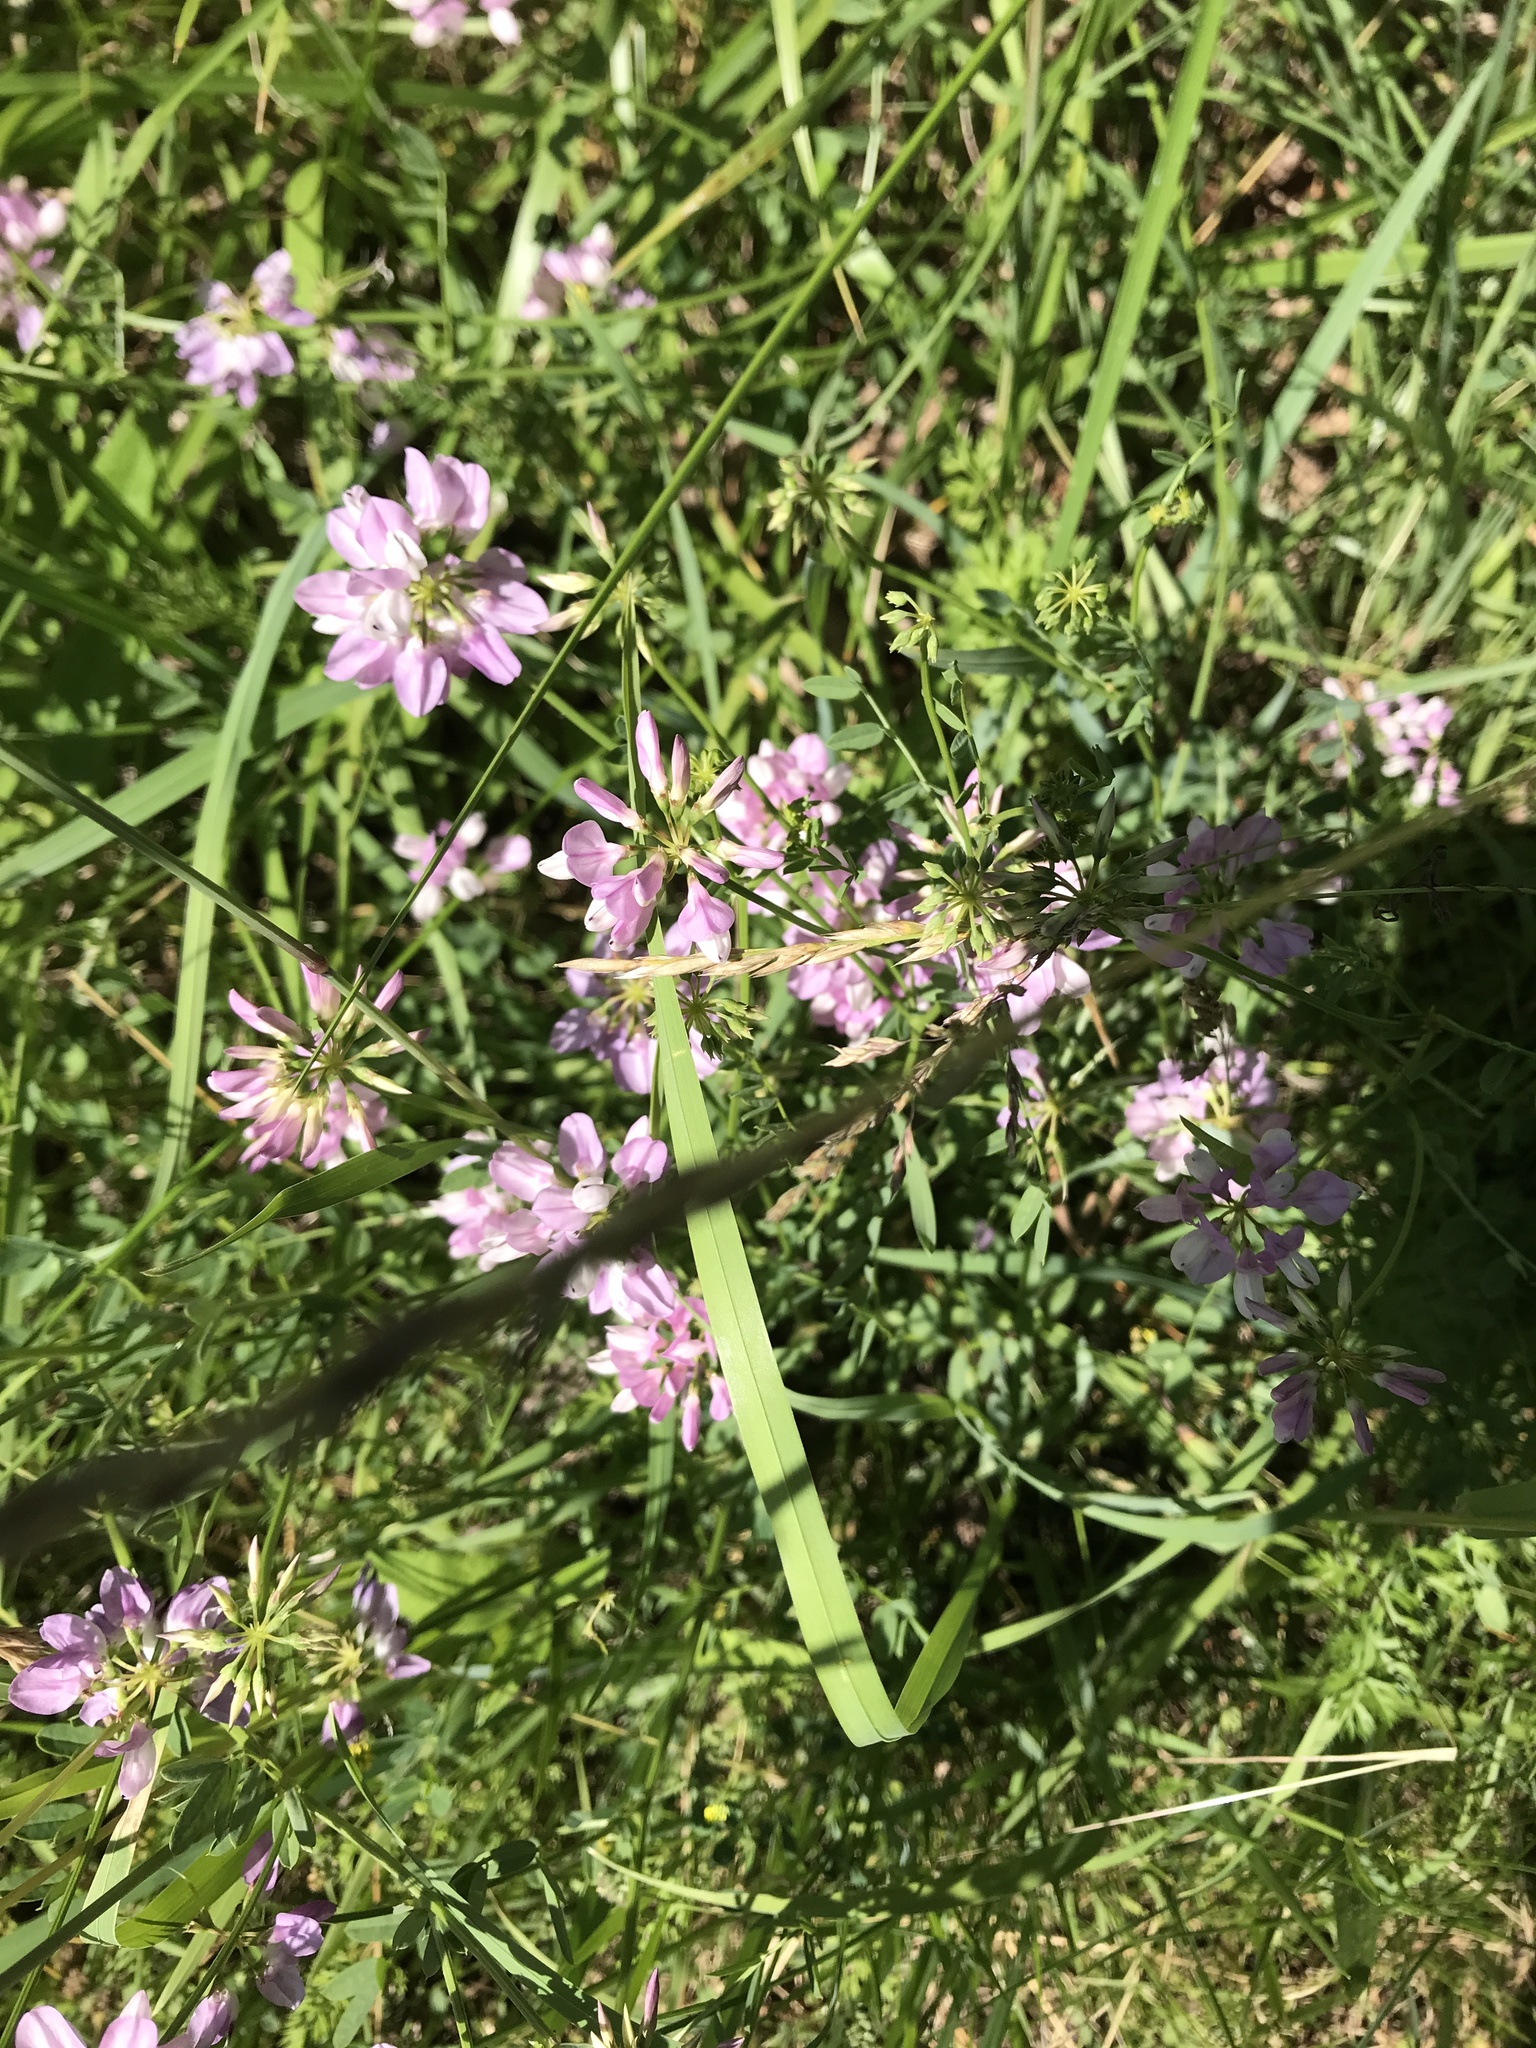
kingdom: Plantae
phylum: Tracheophyta
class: Magnoliopsida
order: Fabales
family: Fabaceae
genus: Coronilla
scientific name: Coronilla varia
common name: Crownvetch
